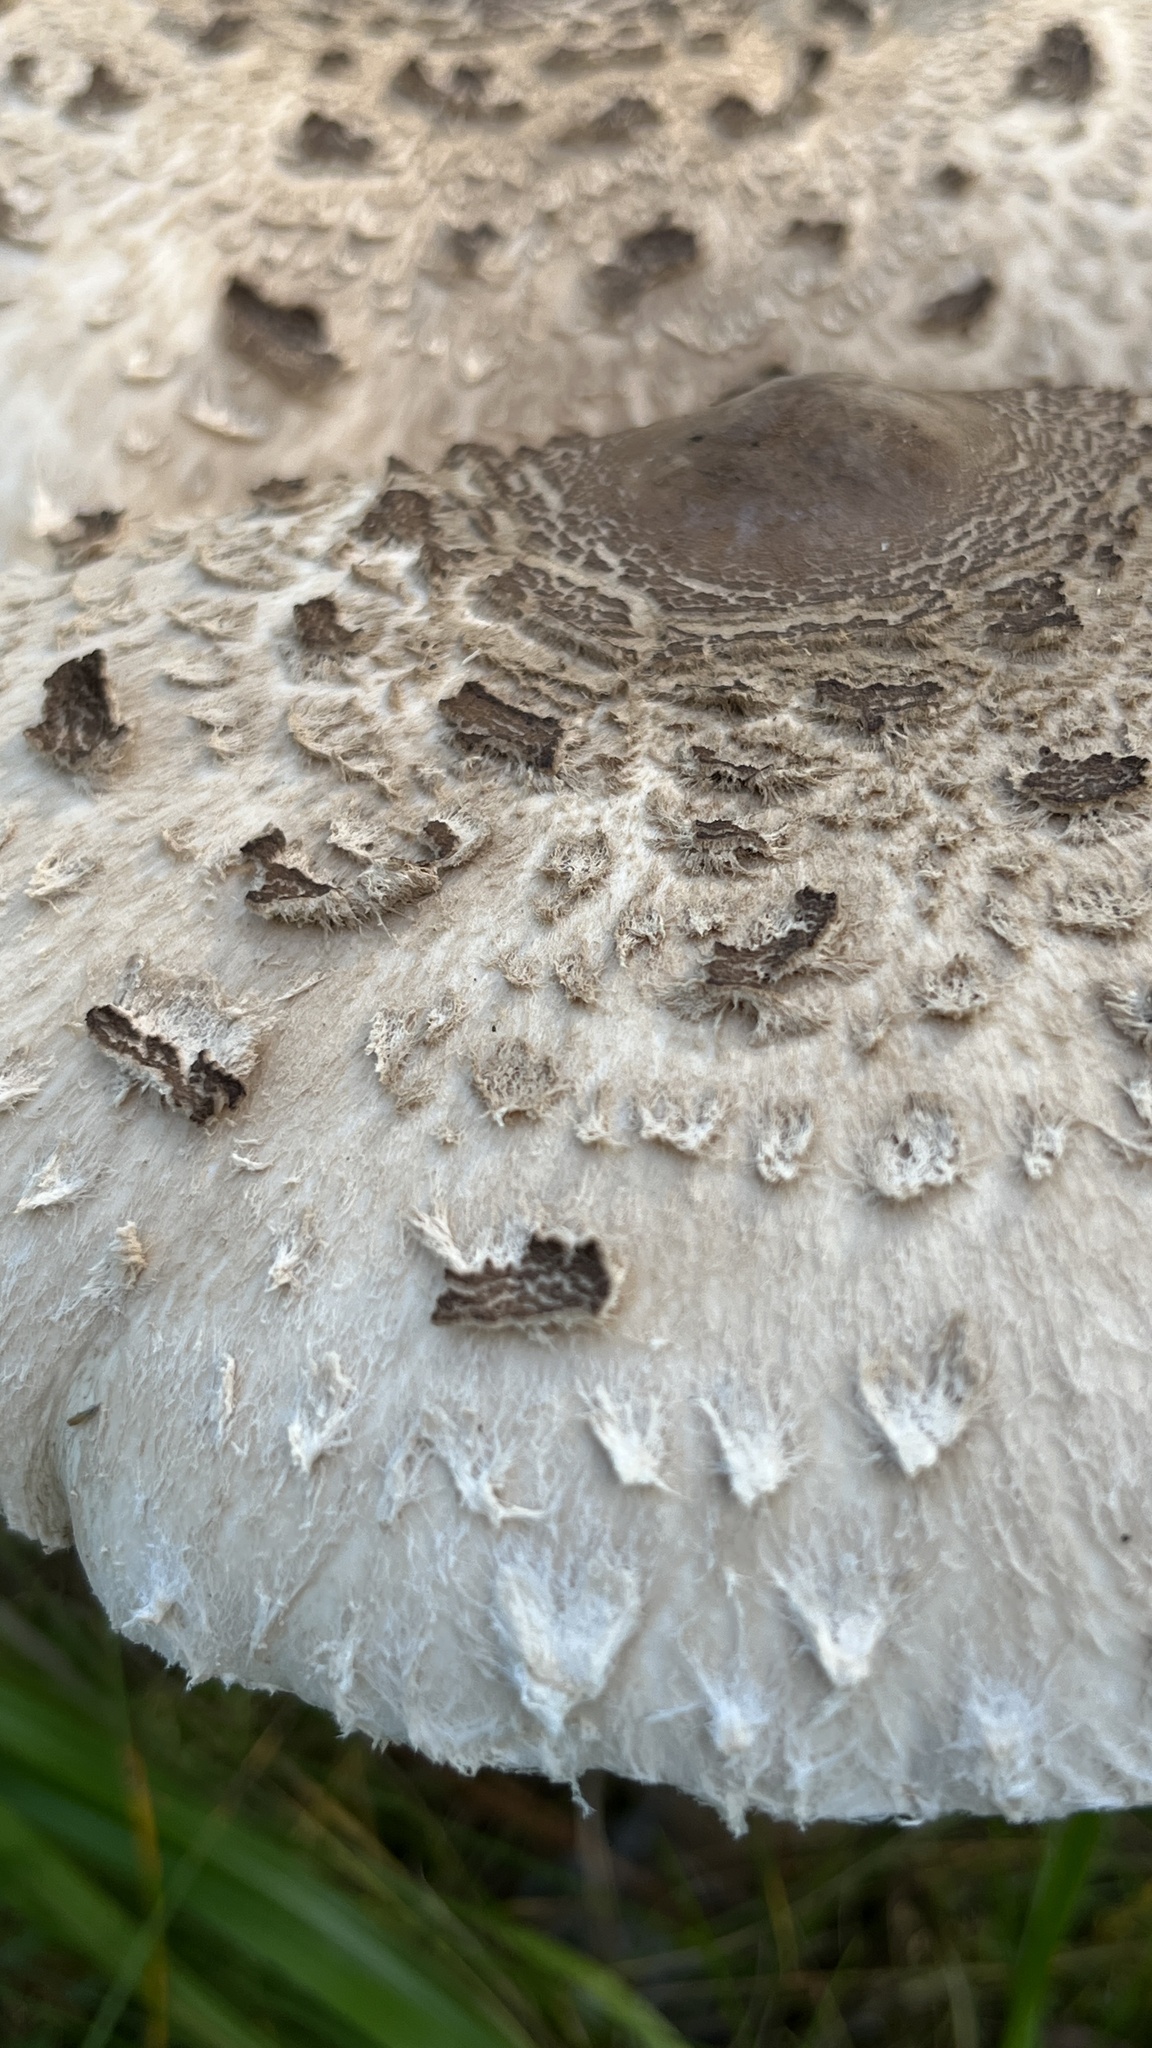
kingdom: Fungi
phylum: Basidiomycota
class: Agaricomycetes
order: Agaricales
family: Agaricaceae
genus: Macrolepiota
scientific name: Macrolepiota procera
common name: Parasol
